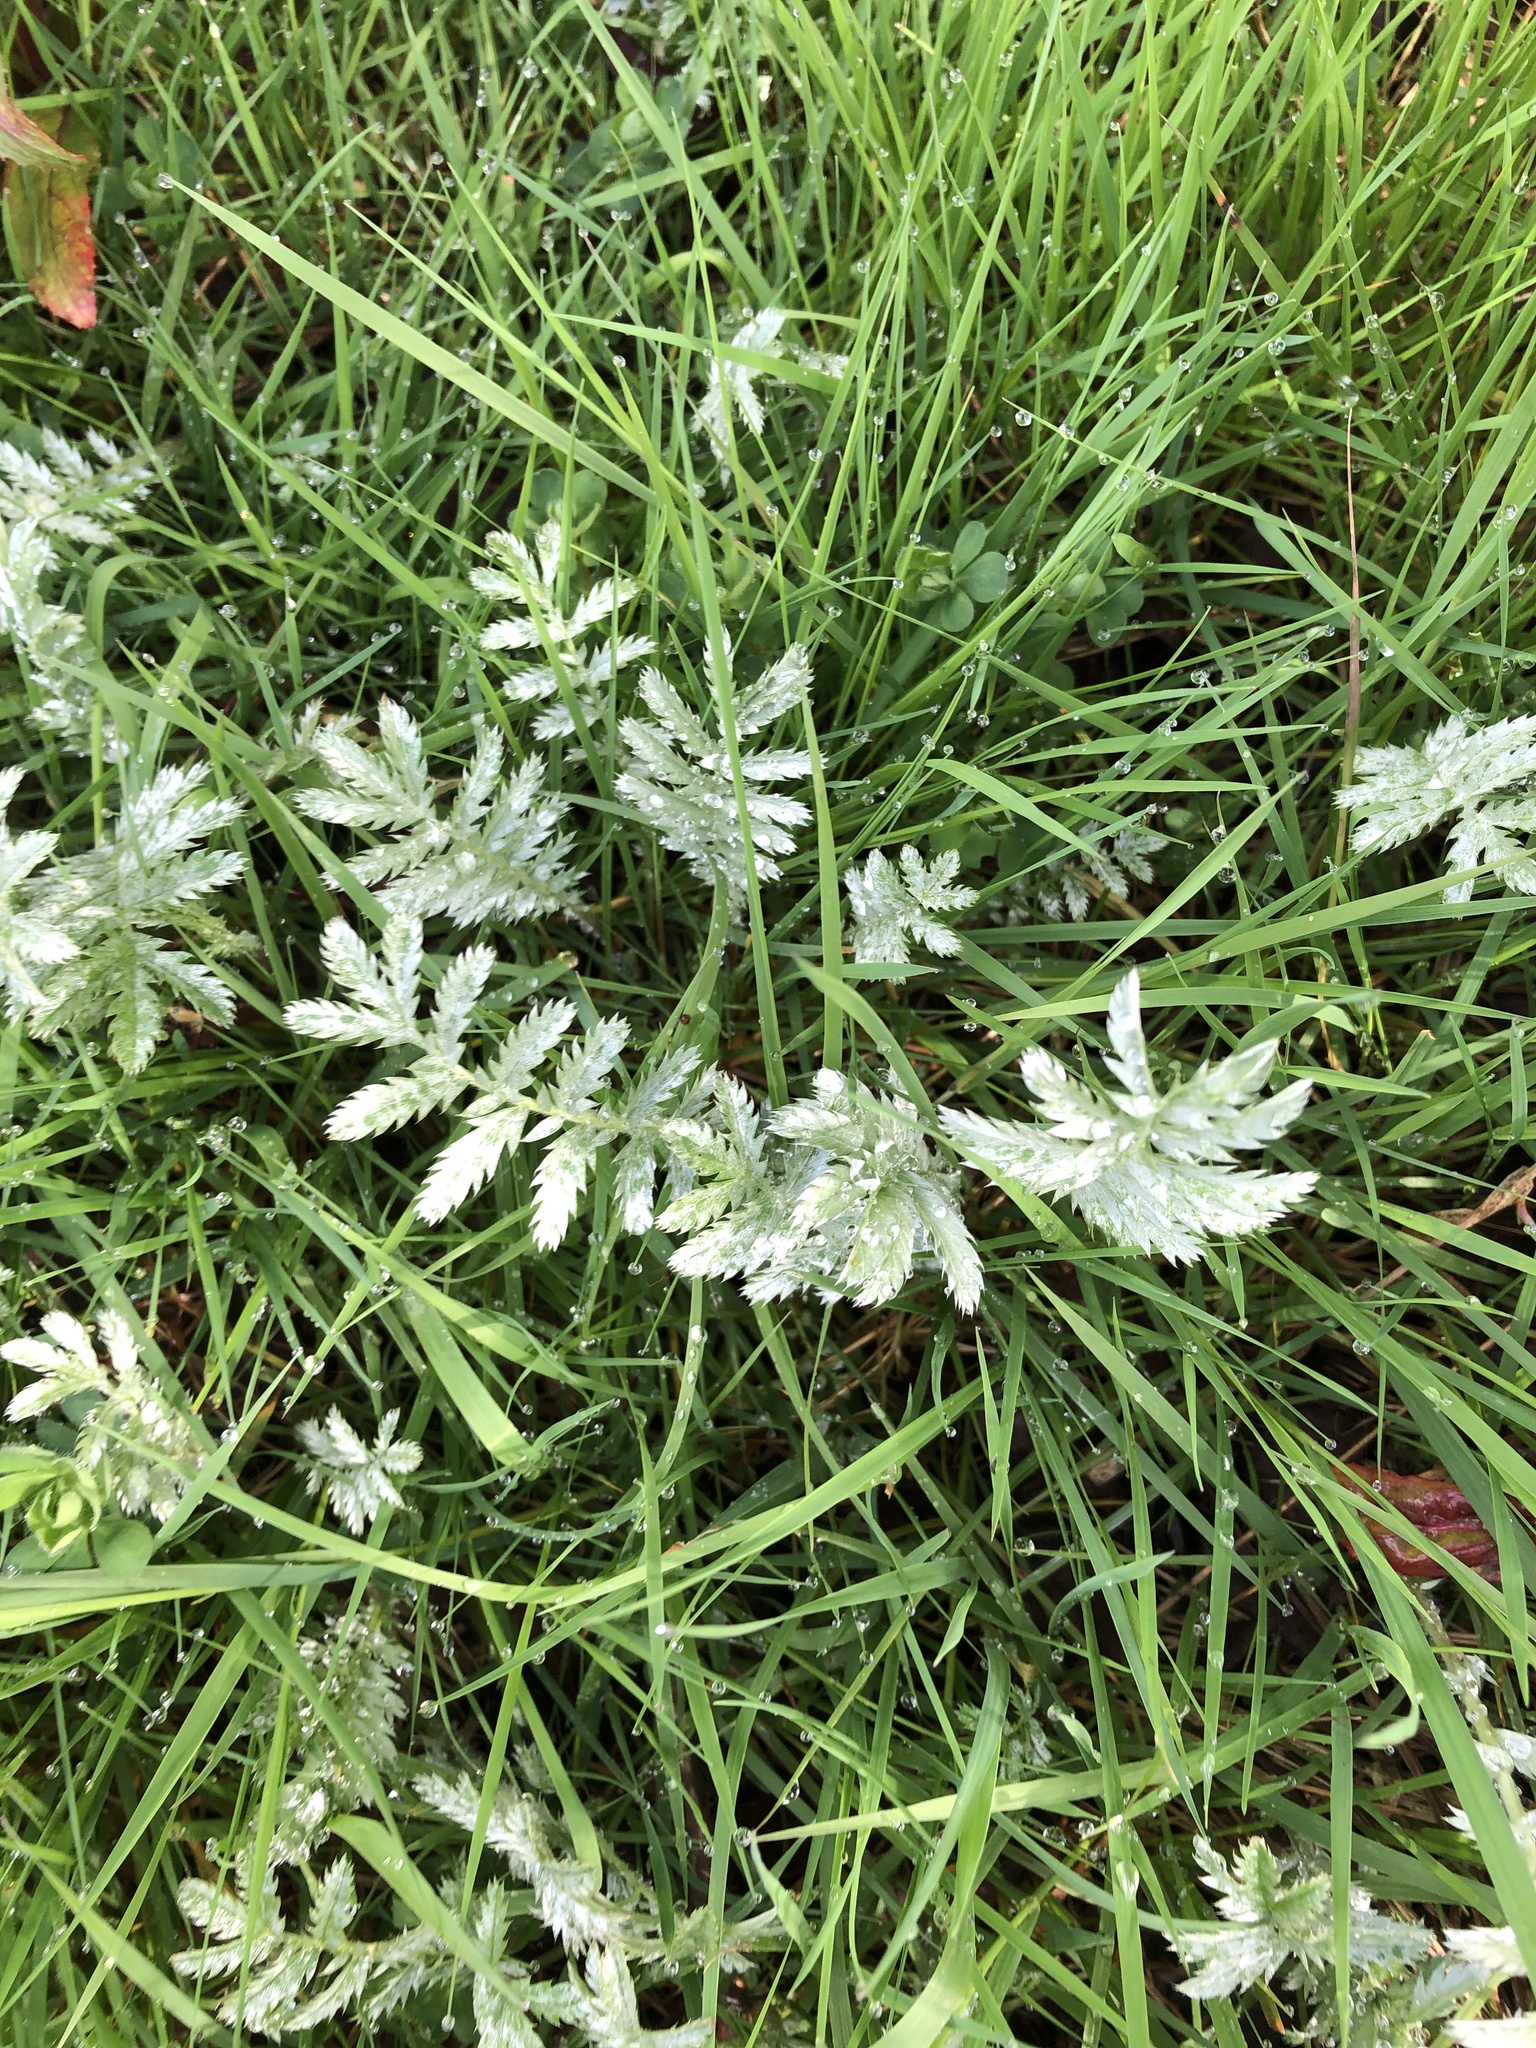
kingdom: Plantae
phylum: Tracheophyta
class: Magnoliopsida
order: Rosales
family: Rosaceae
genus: Argentina
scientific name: Argentina anserina
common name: Common silverweed
